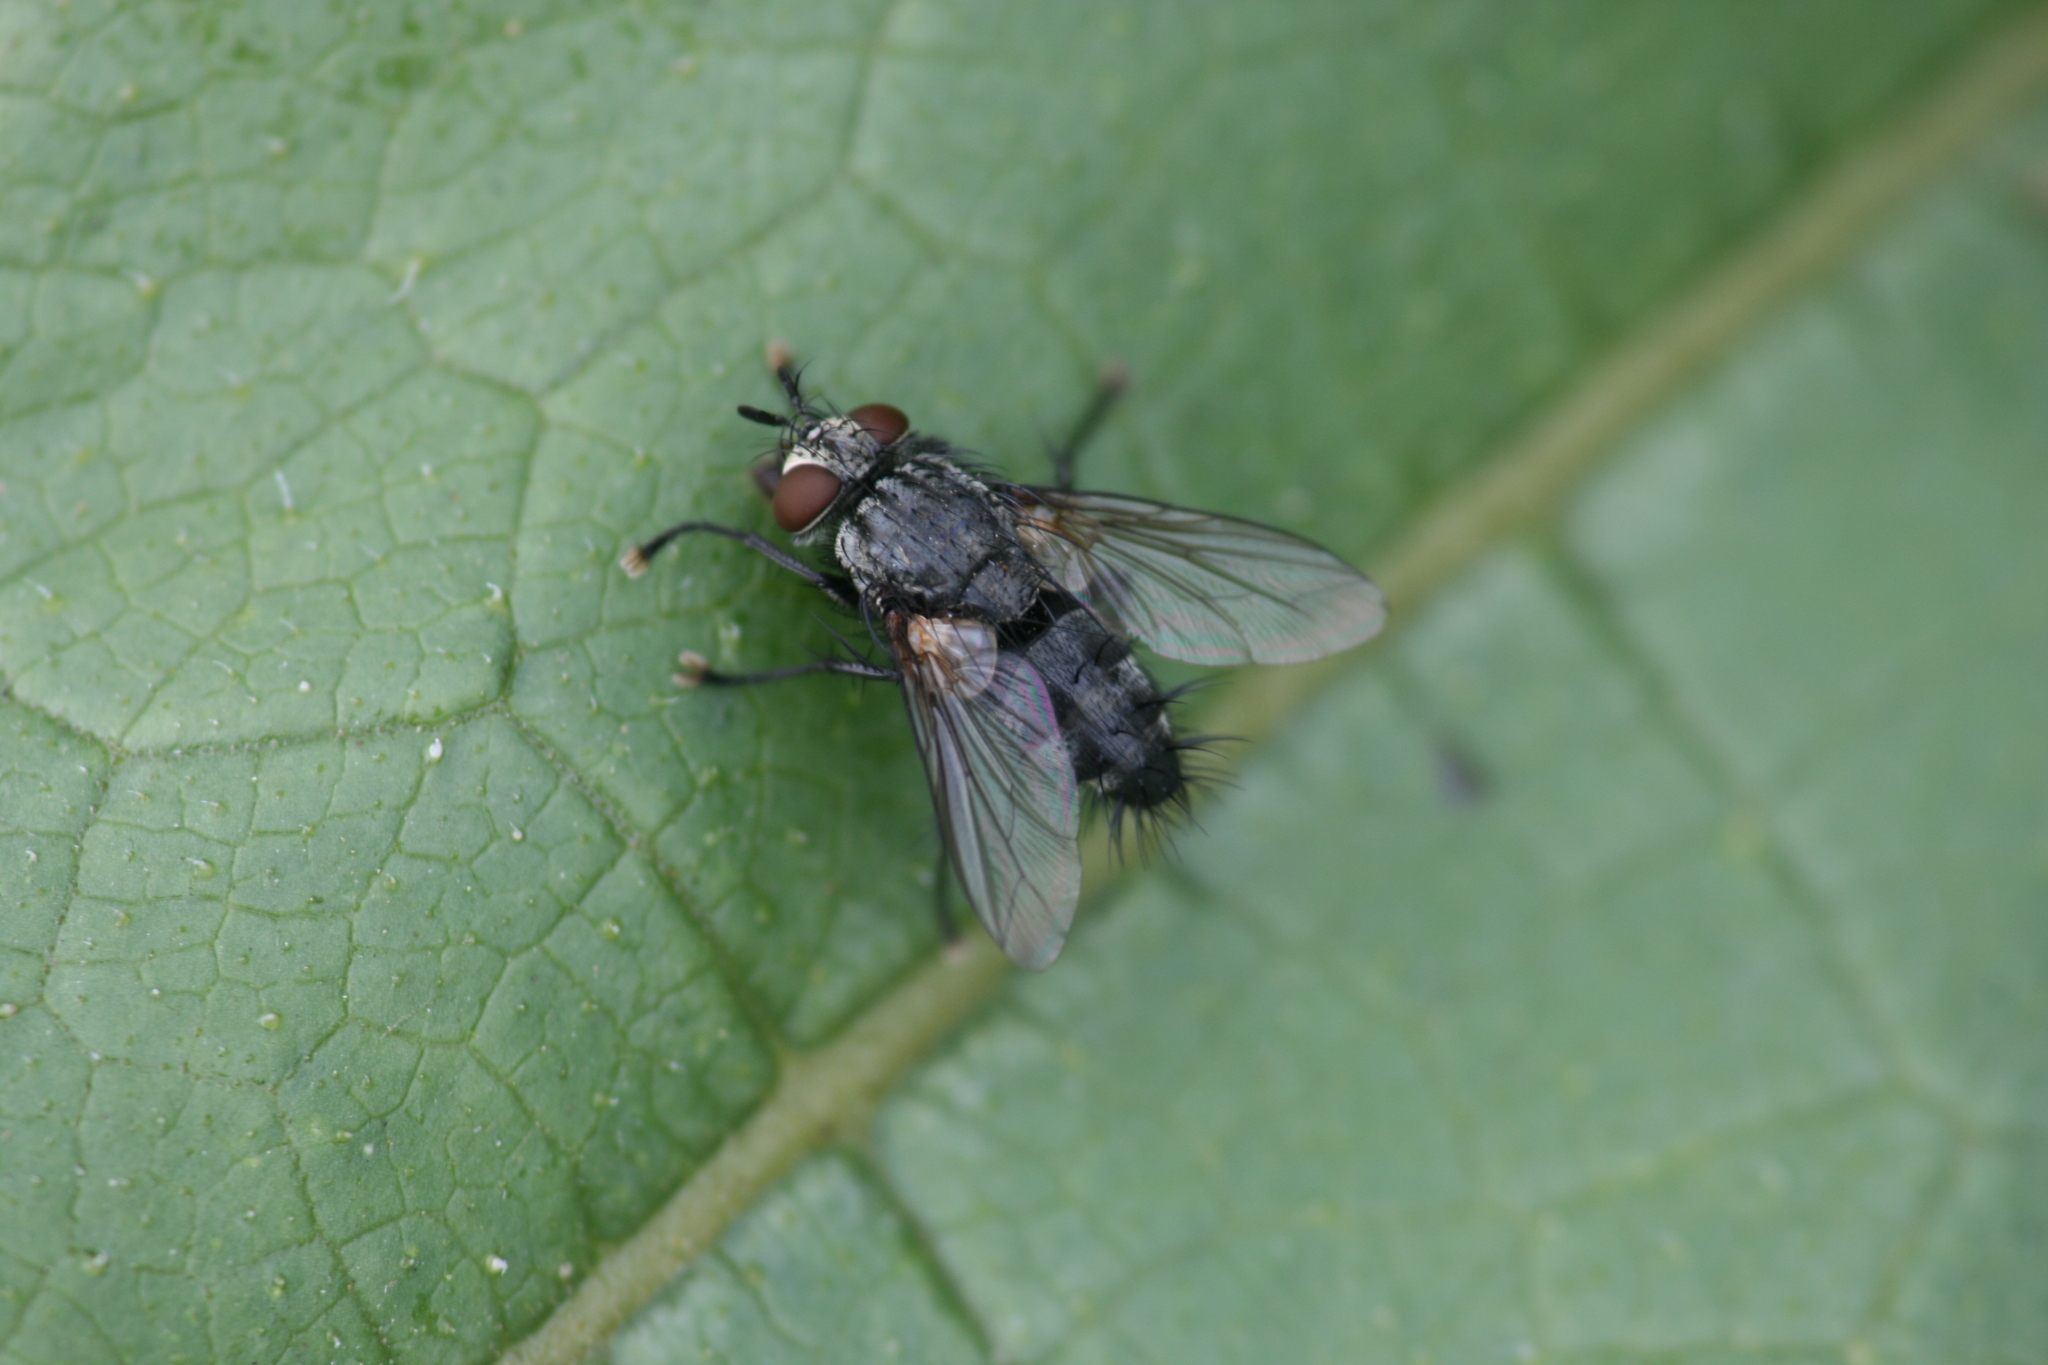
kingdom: Animalia
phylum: Arthropoda
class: Insecta
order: Diptera
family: Tachinidae
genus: Voria
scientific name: Voria ruralis
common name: Parasitic fly
